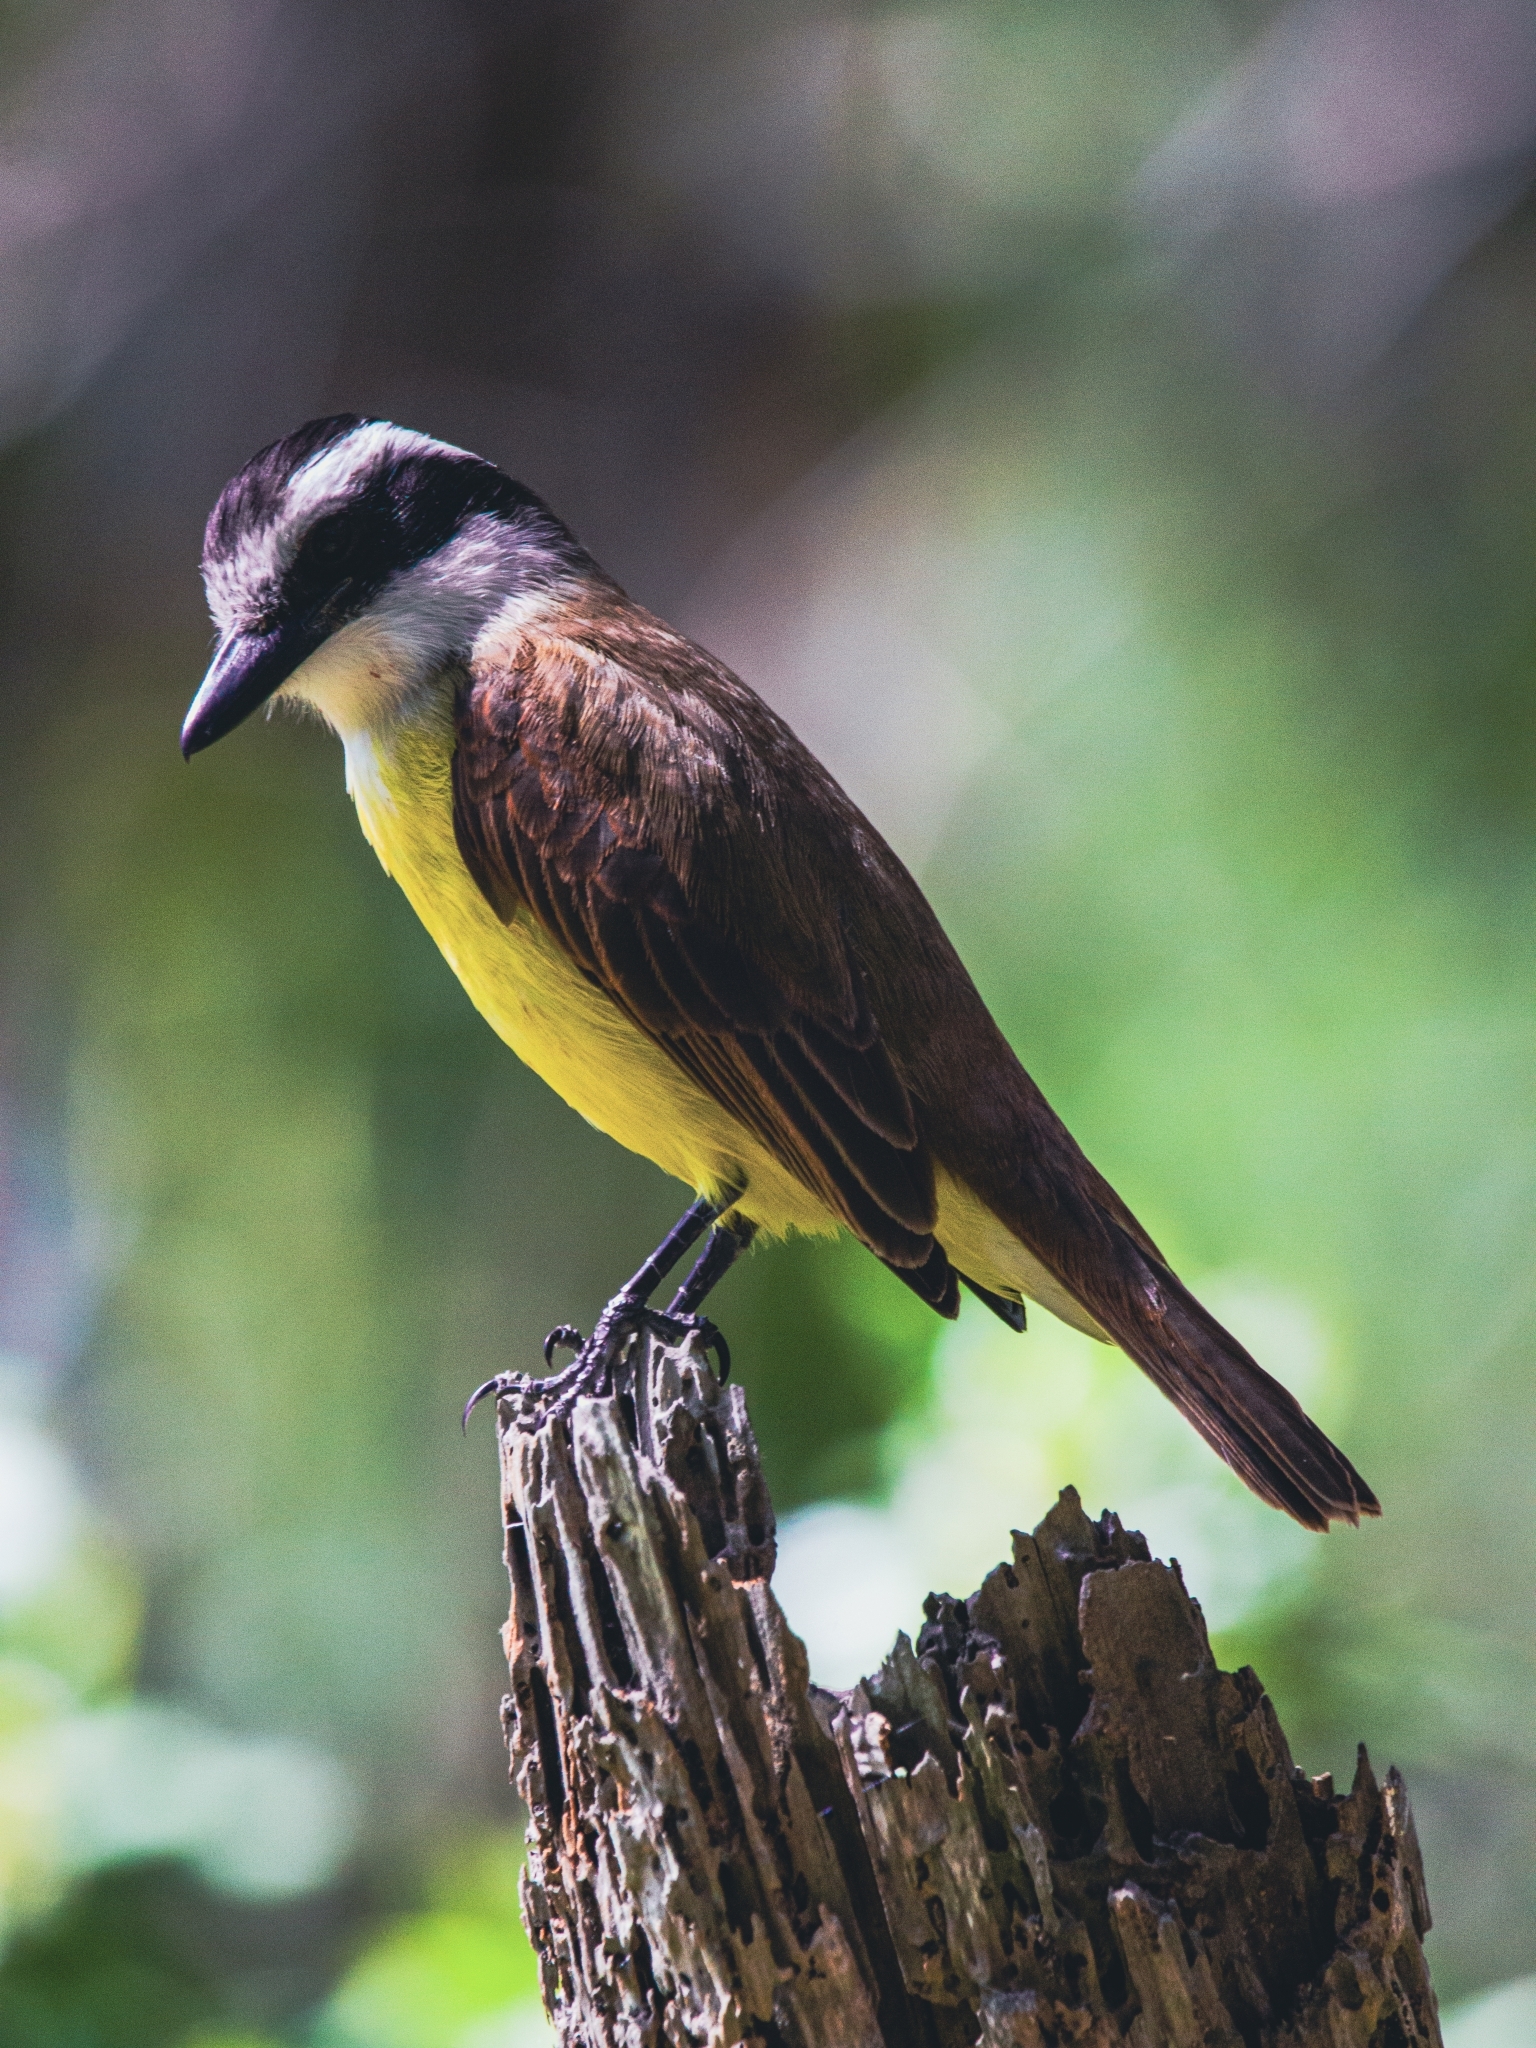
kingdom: Animalia
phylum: Chordata
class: Aves
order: Passeriformes
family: Tyrannidae
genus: Pitangus
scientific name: Pitangus sulphuratus
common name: Great kiskadee
